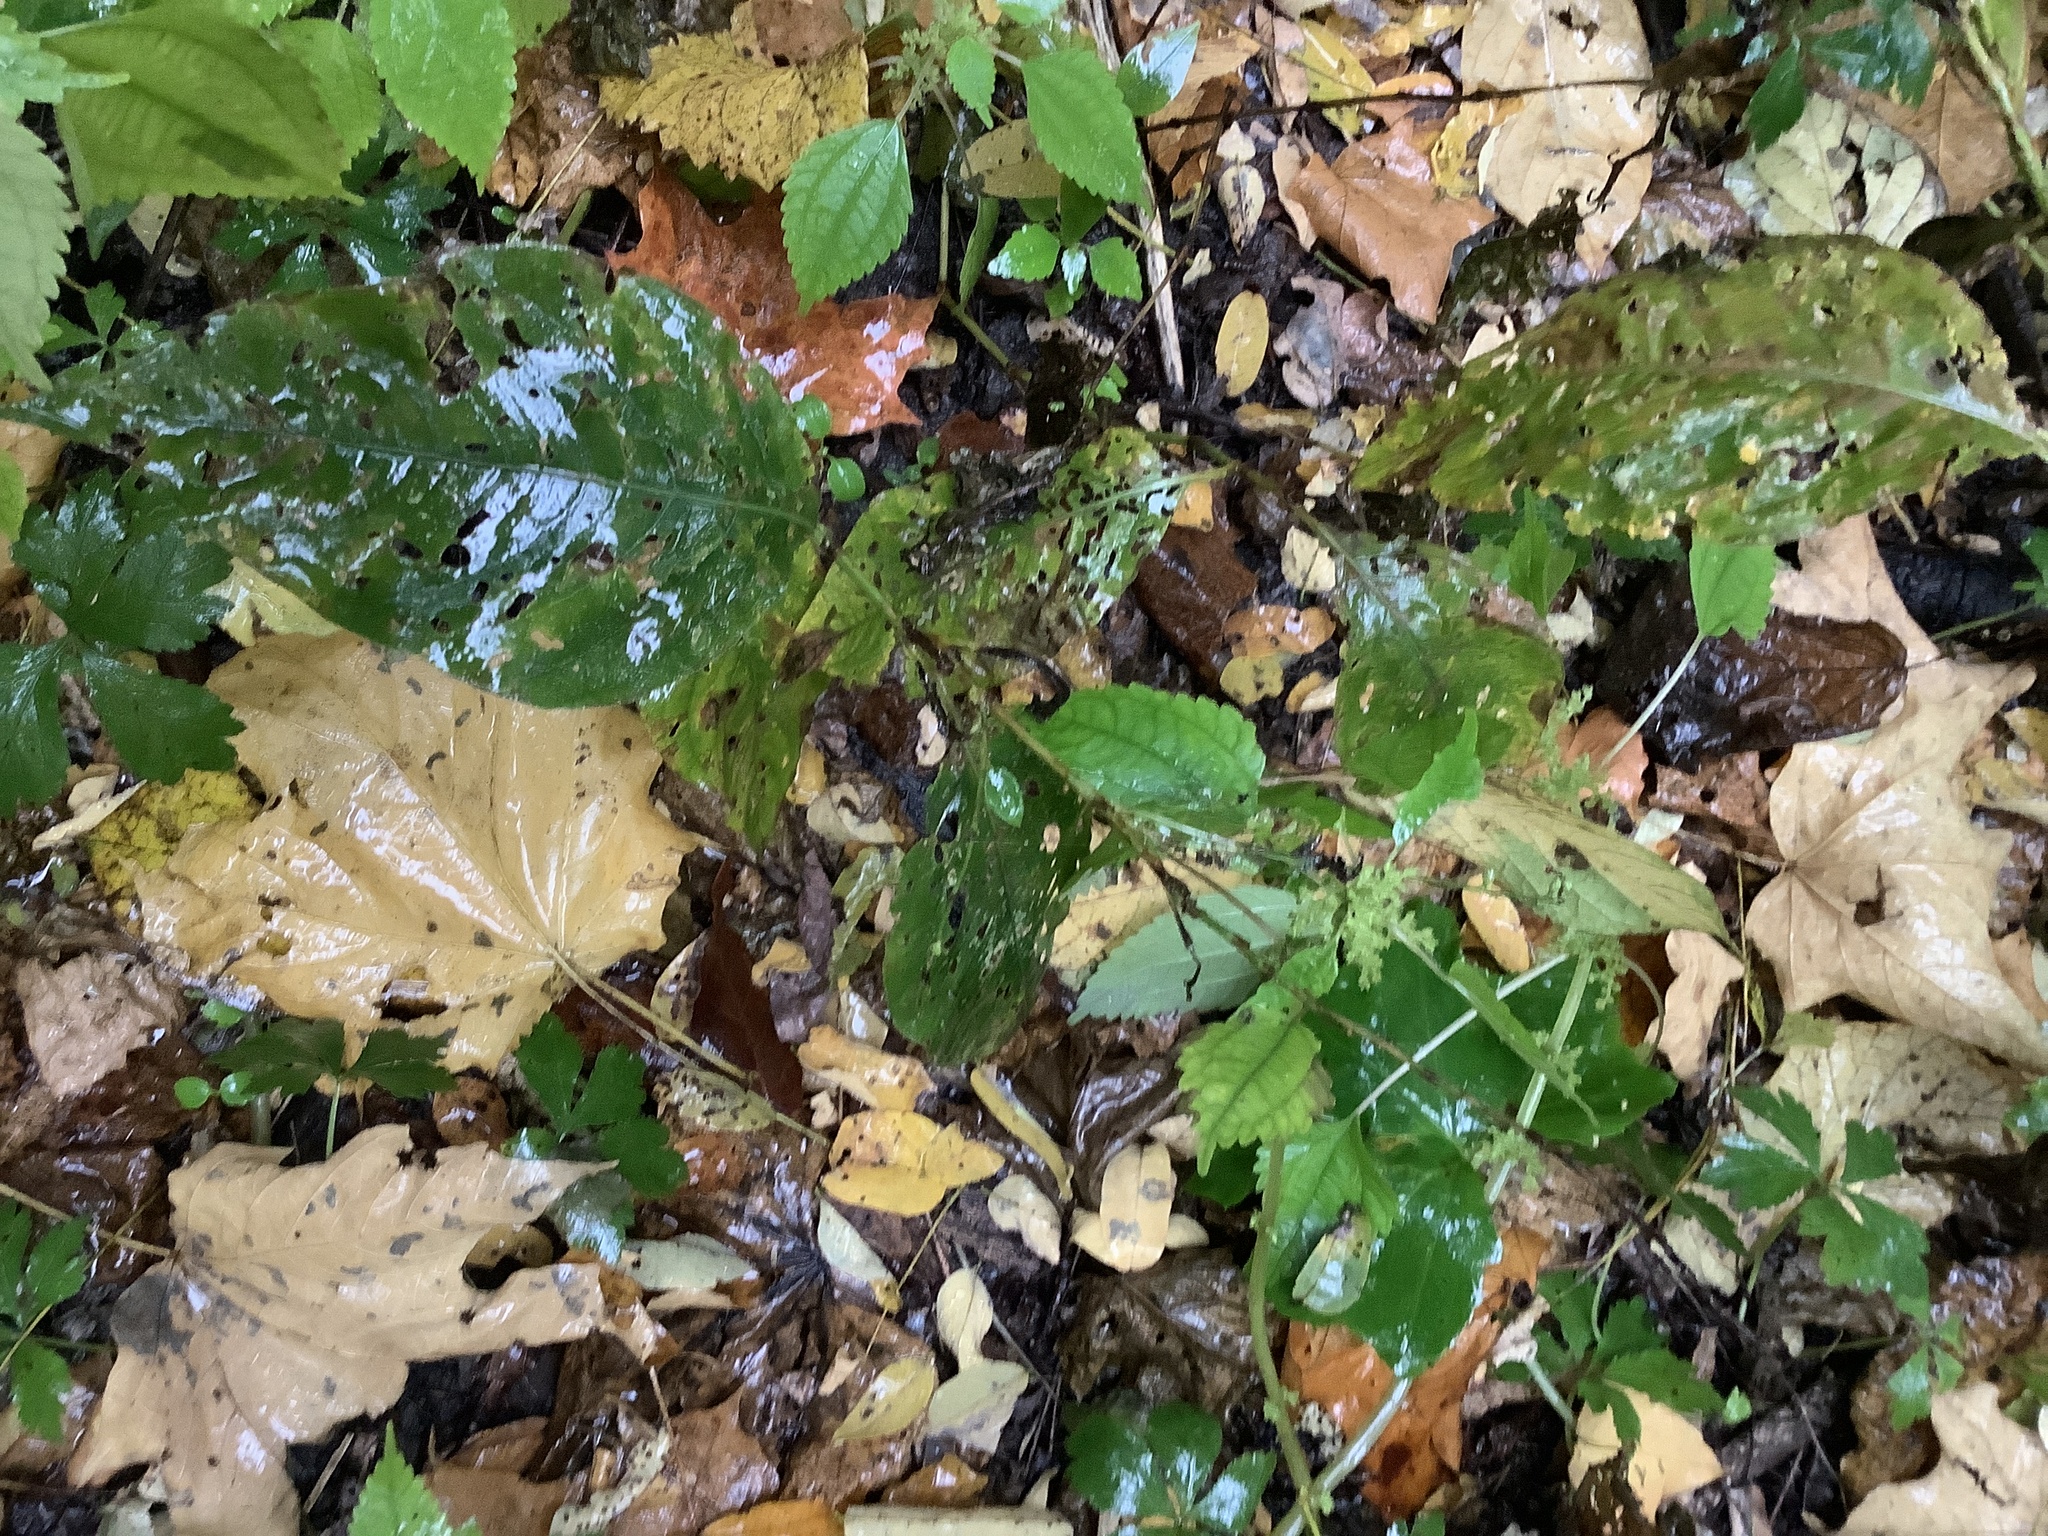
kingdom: Plantae
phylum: Tracheophyta
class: Magnoliopsida
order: Caryophyllales
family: Polygonaceae
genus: Persicaria
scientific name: Persicaria virginiana
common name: Jumpseed
